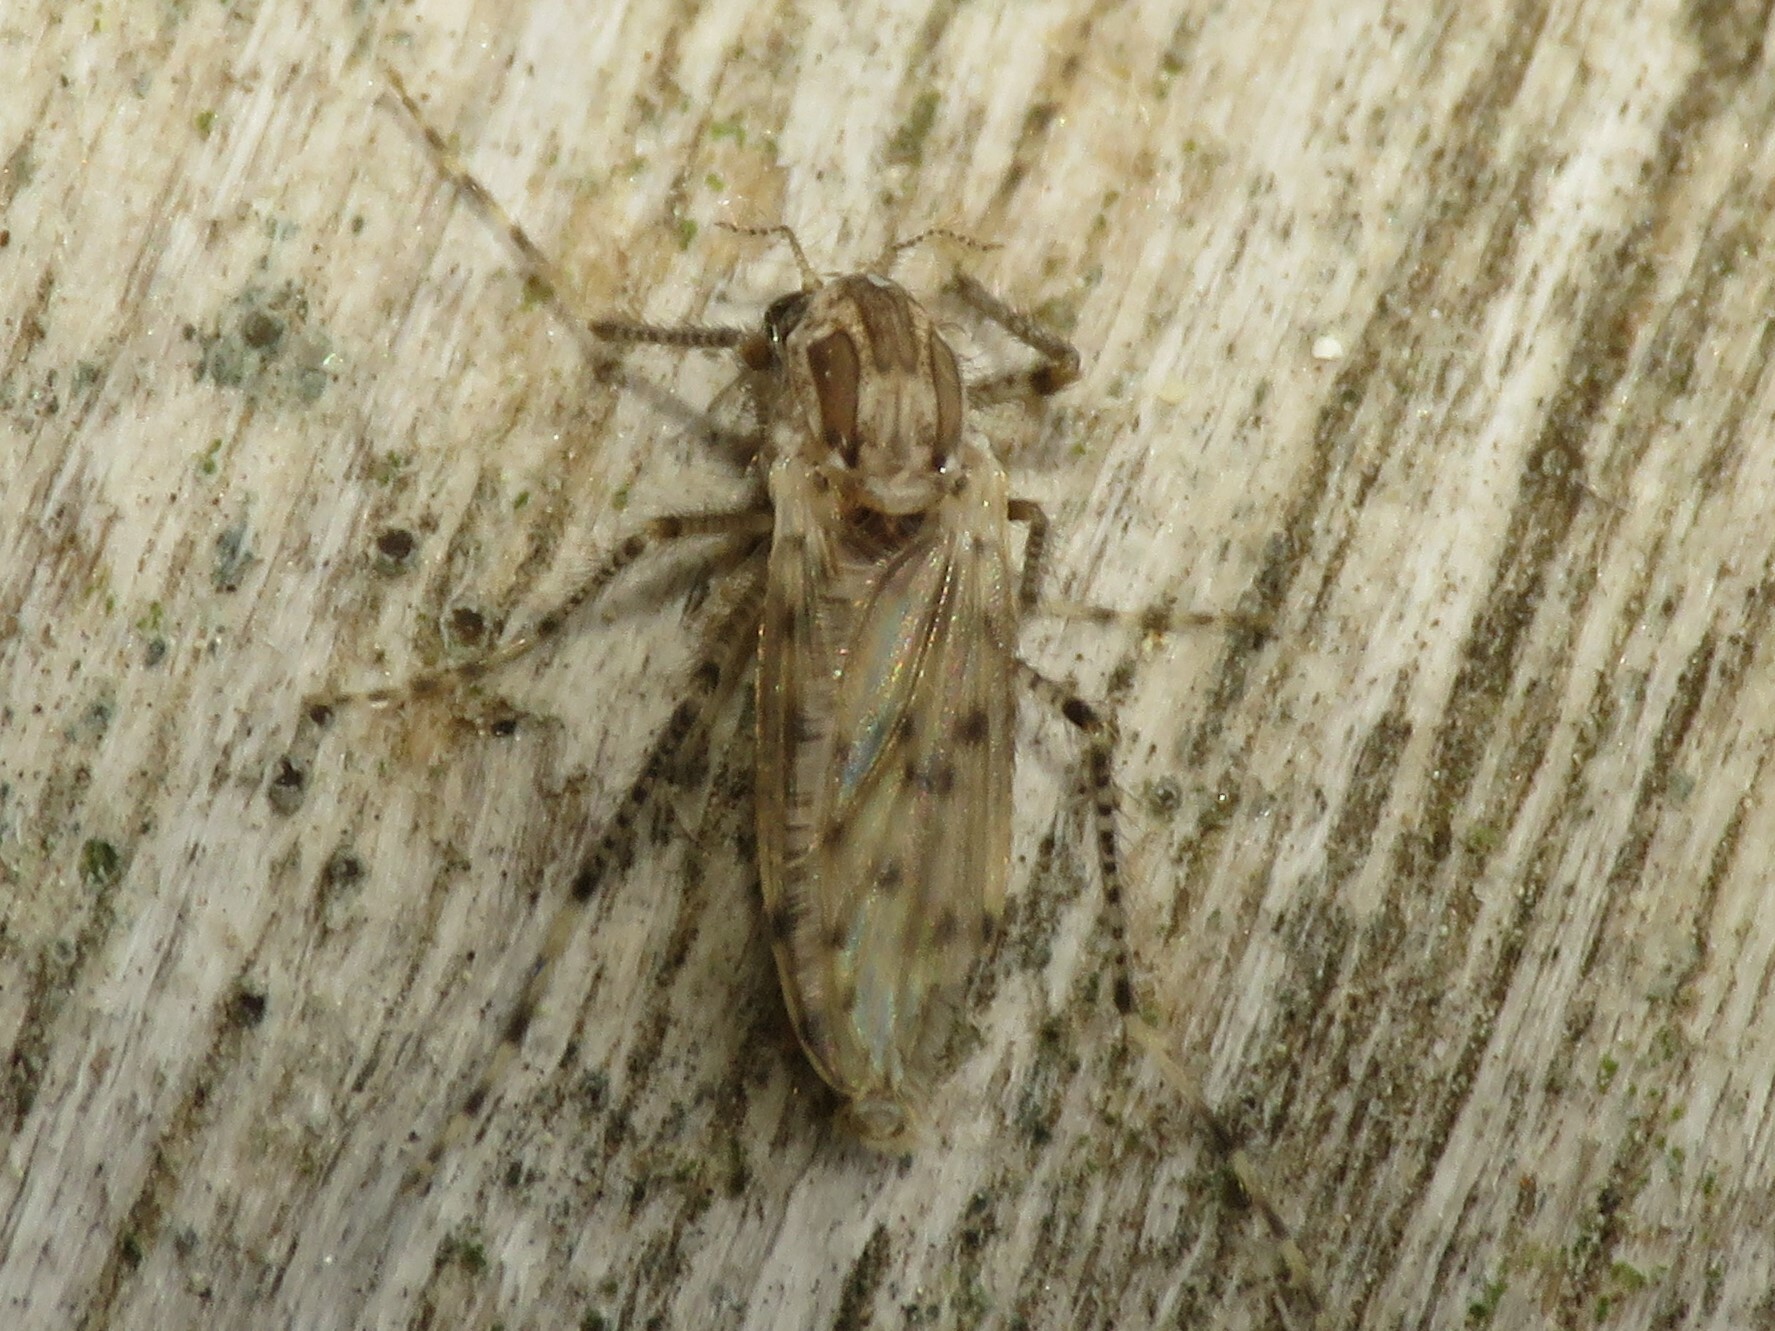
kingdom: Animalia
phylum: Arthropoda
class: Insecta
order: Diptera
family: Chaoboridae
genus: Chaoborus
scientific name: Chaoborus punctipennis
